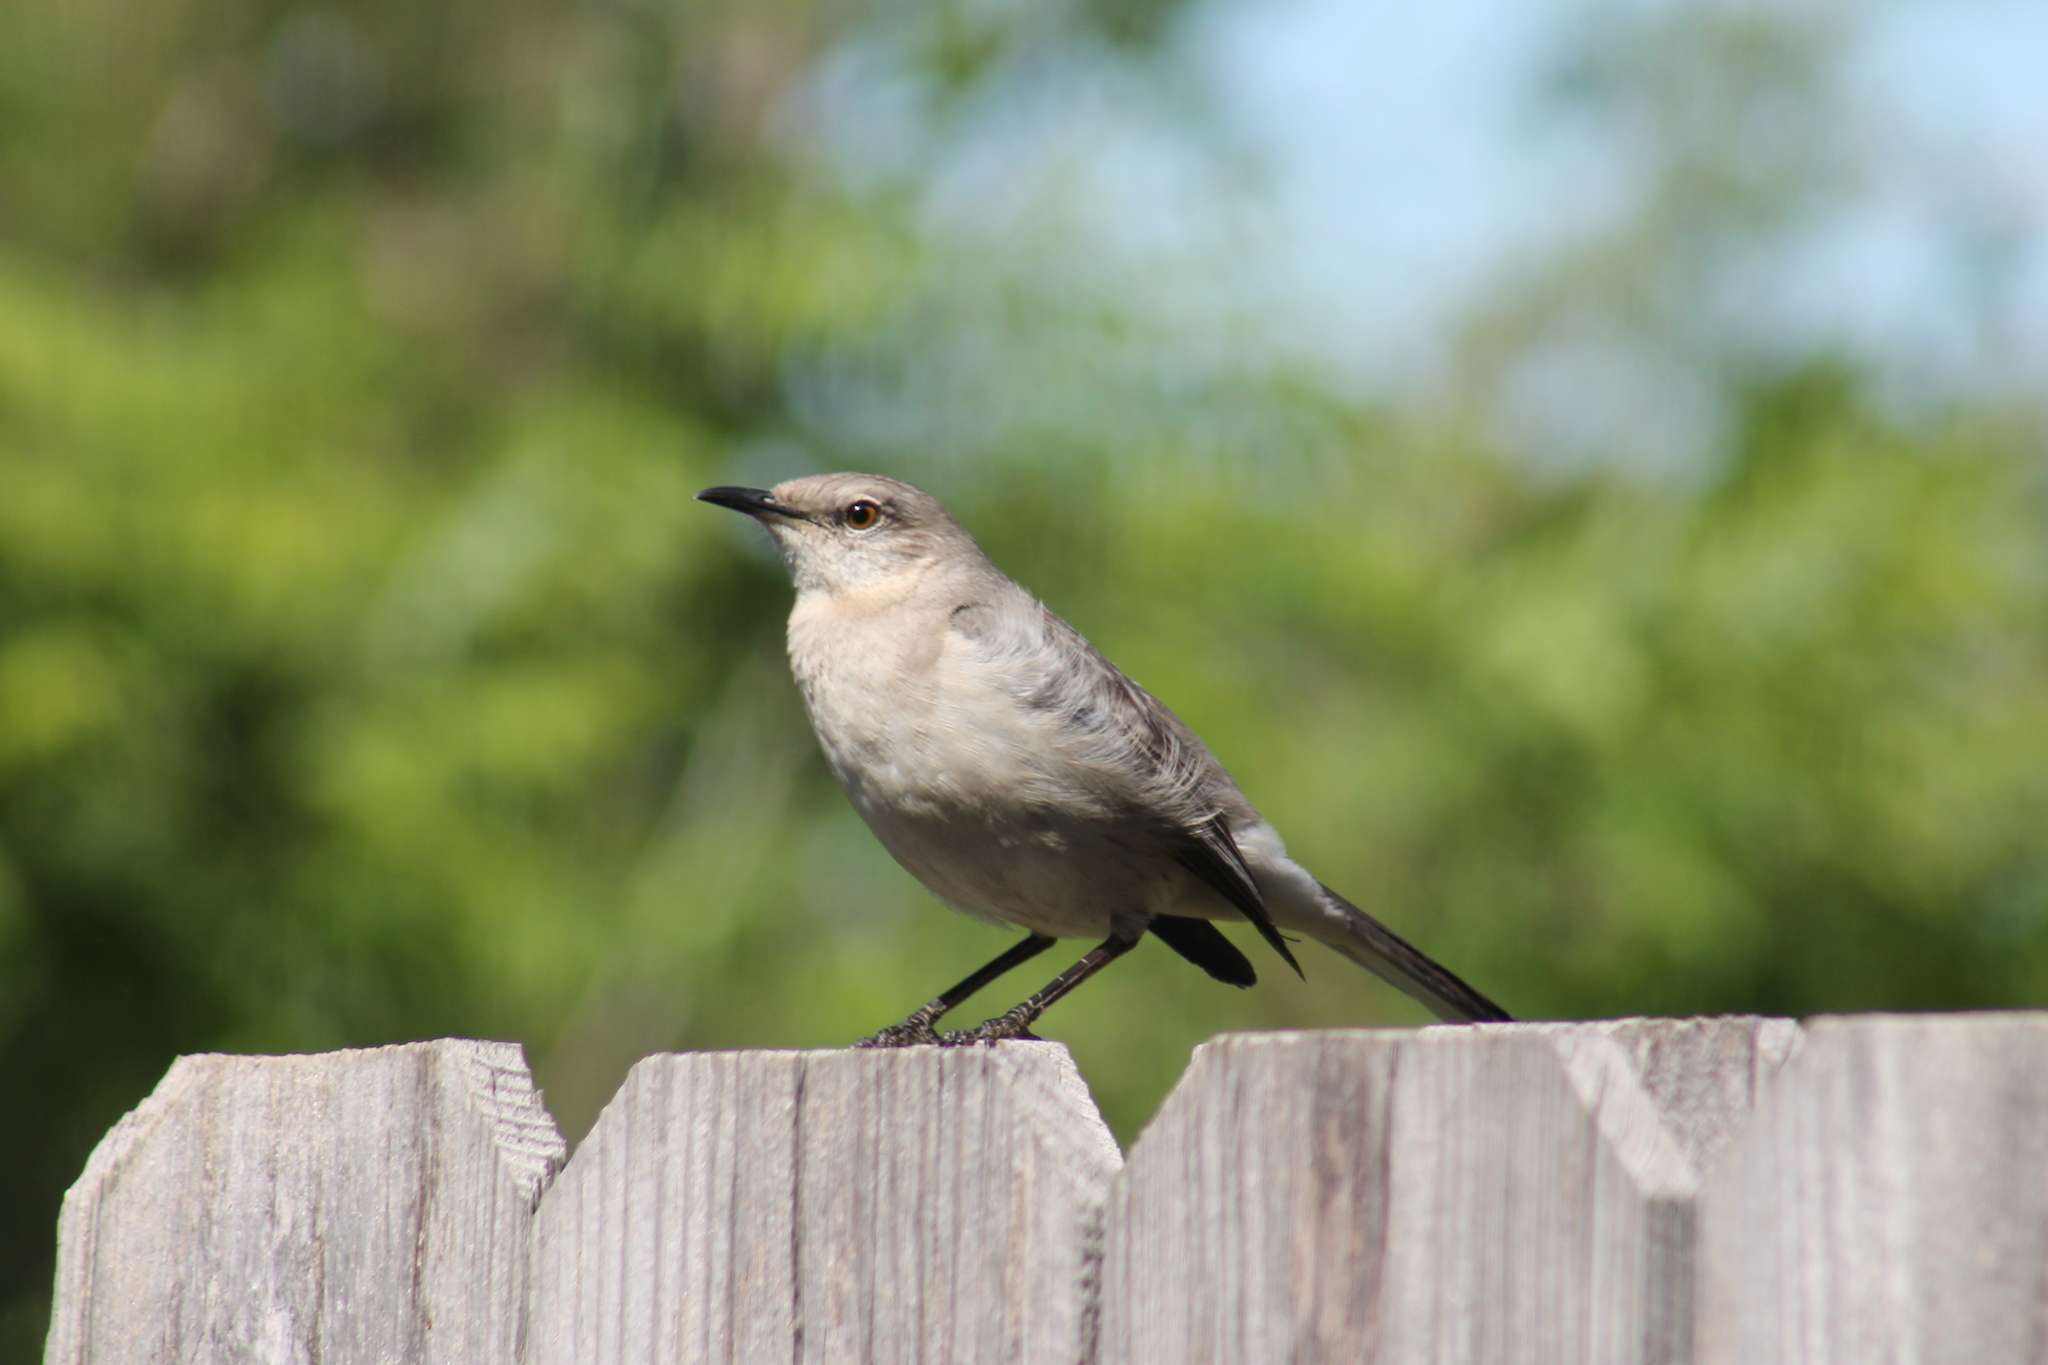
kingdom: Animalia
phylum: Chordata
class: Aves
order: Passeriformes
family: Mimidae
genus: Mimus
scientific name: Mimus polyglottos
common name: Northern mockingbird
